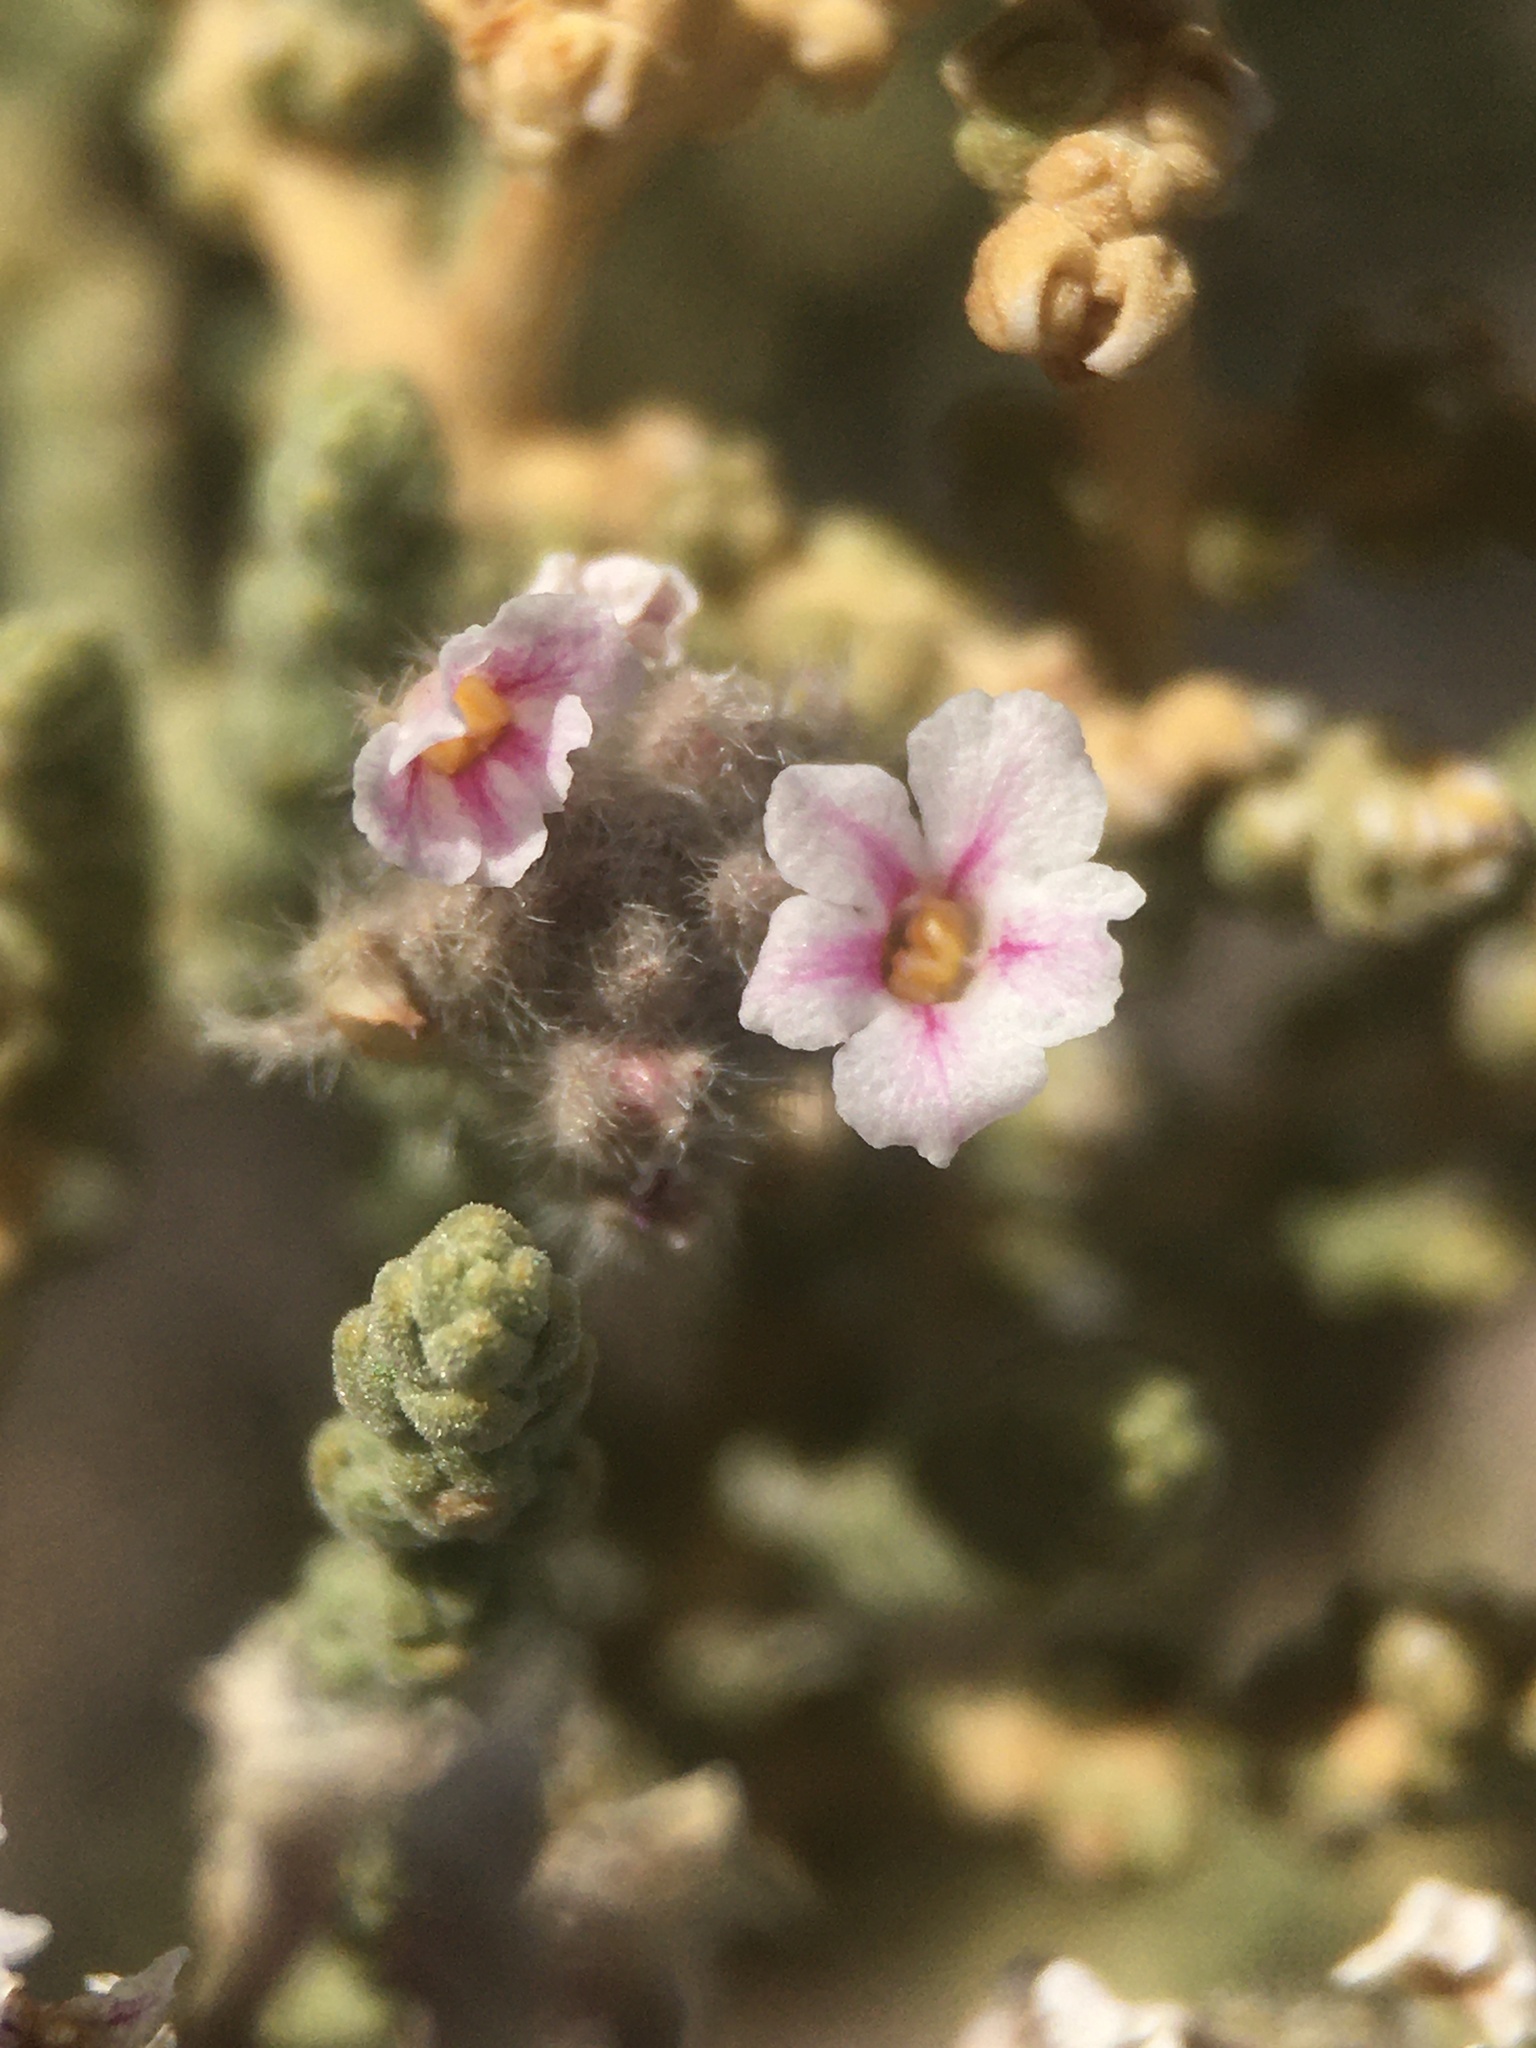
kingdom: Plantae
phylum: Tracheophyta
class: Magnoliopsida
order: Lamiales
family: Verbenaceae
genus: Aloysia
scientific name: Aloysia tarapacana
